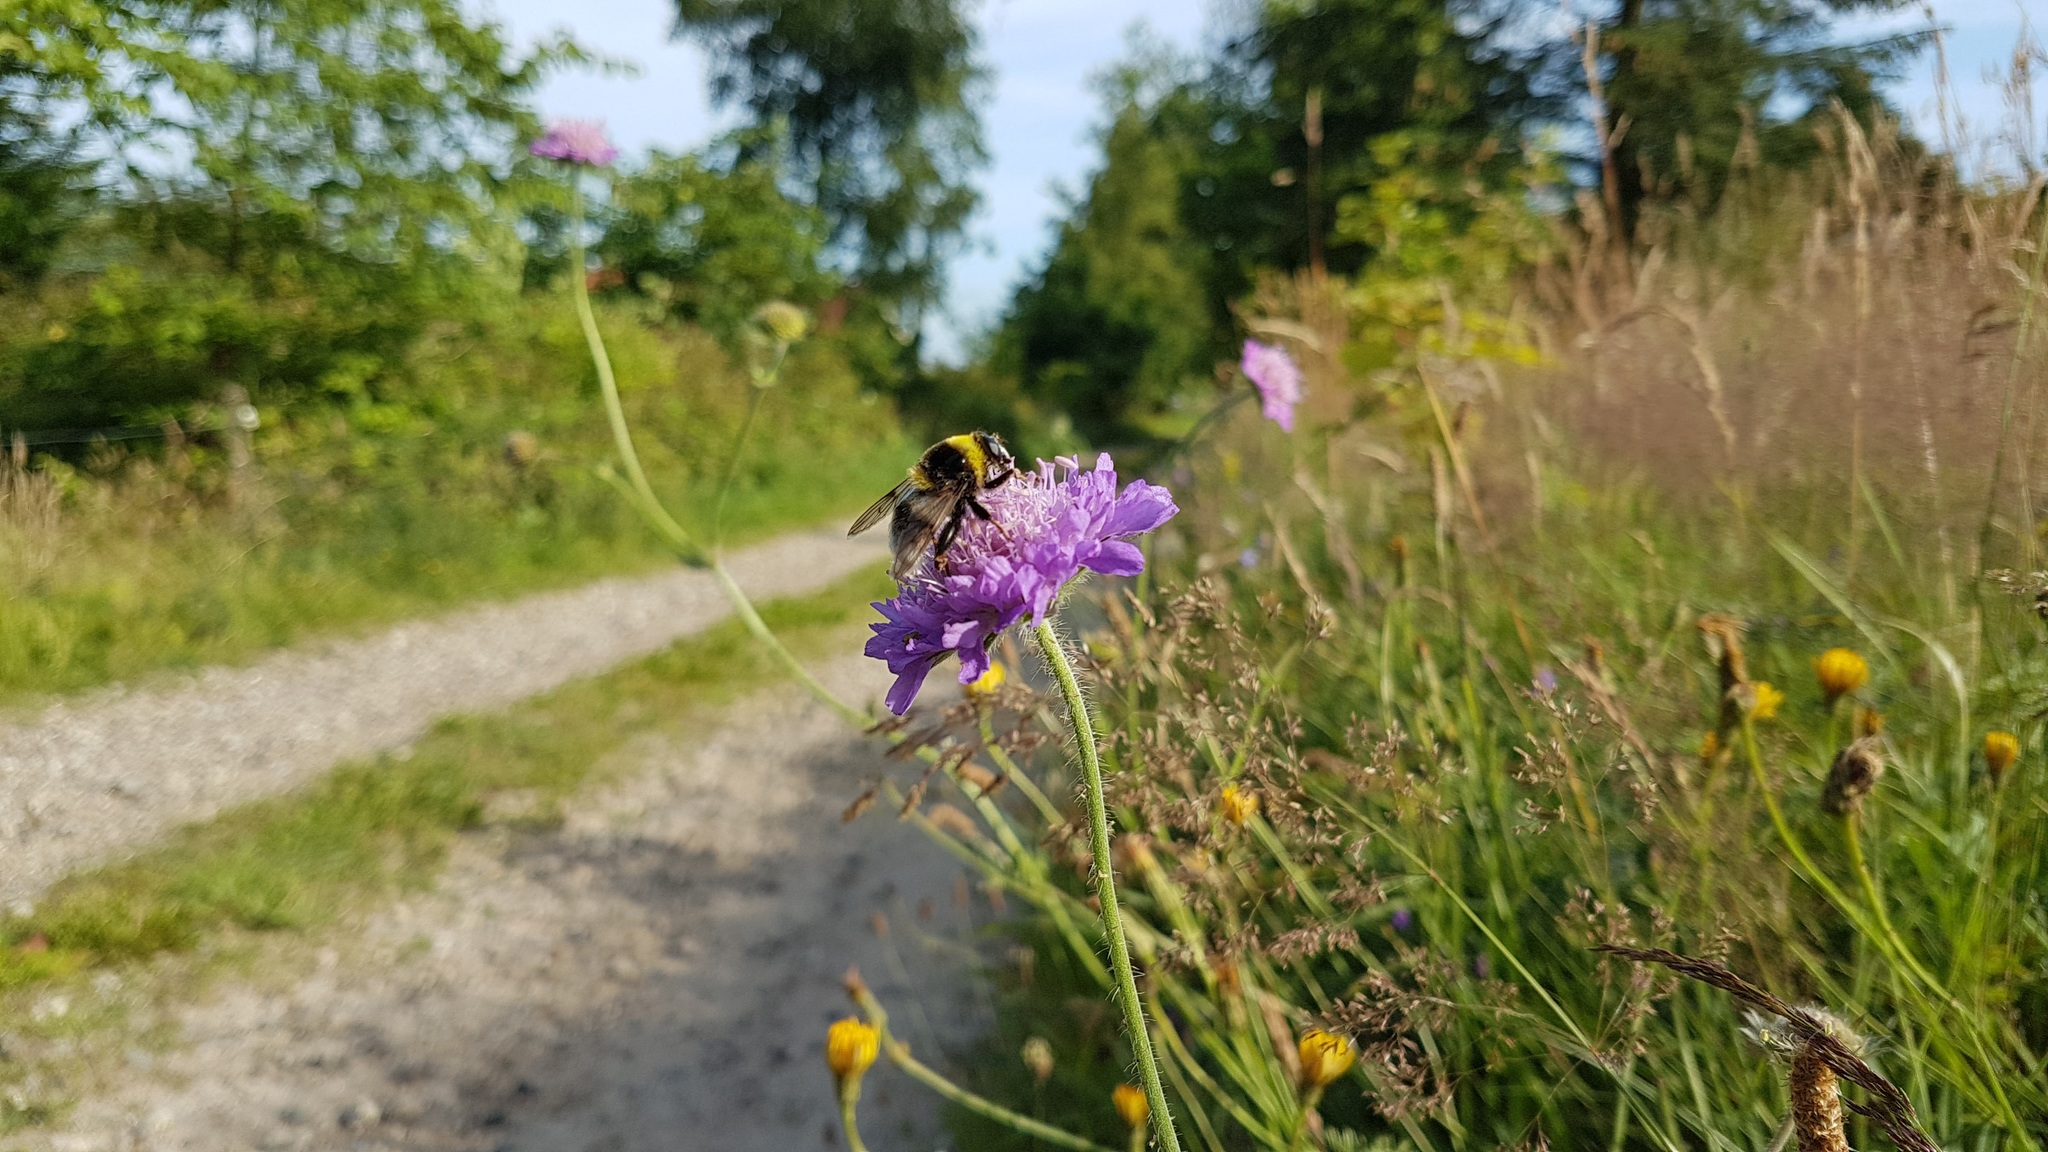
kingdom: Animalia
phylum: Arthropoda
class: Insecta
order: Diptera
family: Syrphidae
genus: Sericomyia
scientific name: Sericomyia bombiformis
